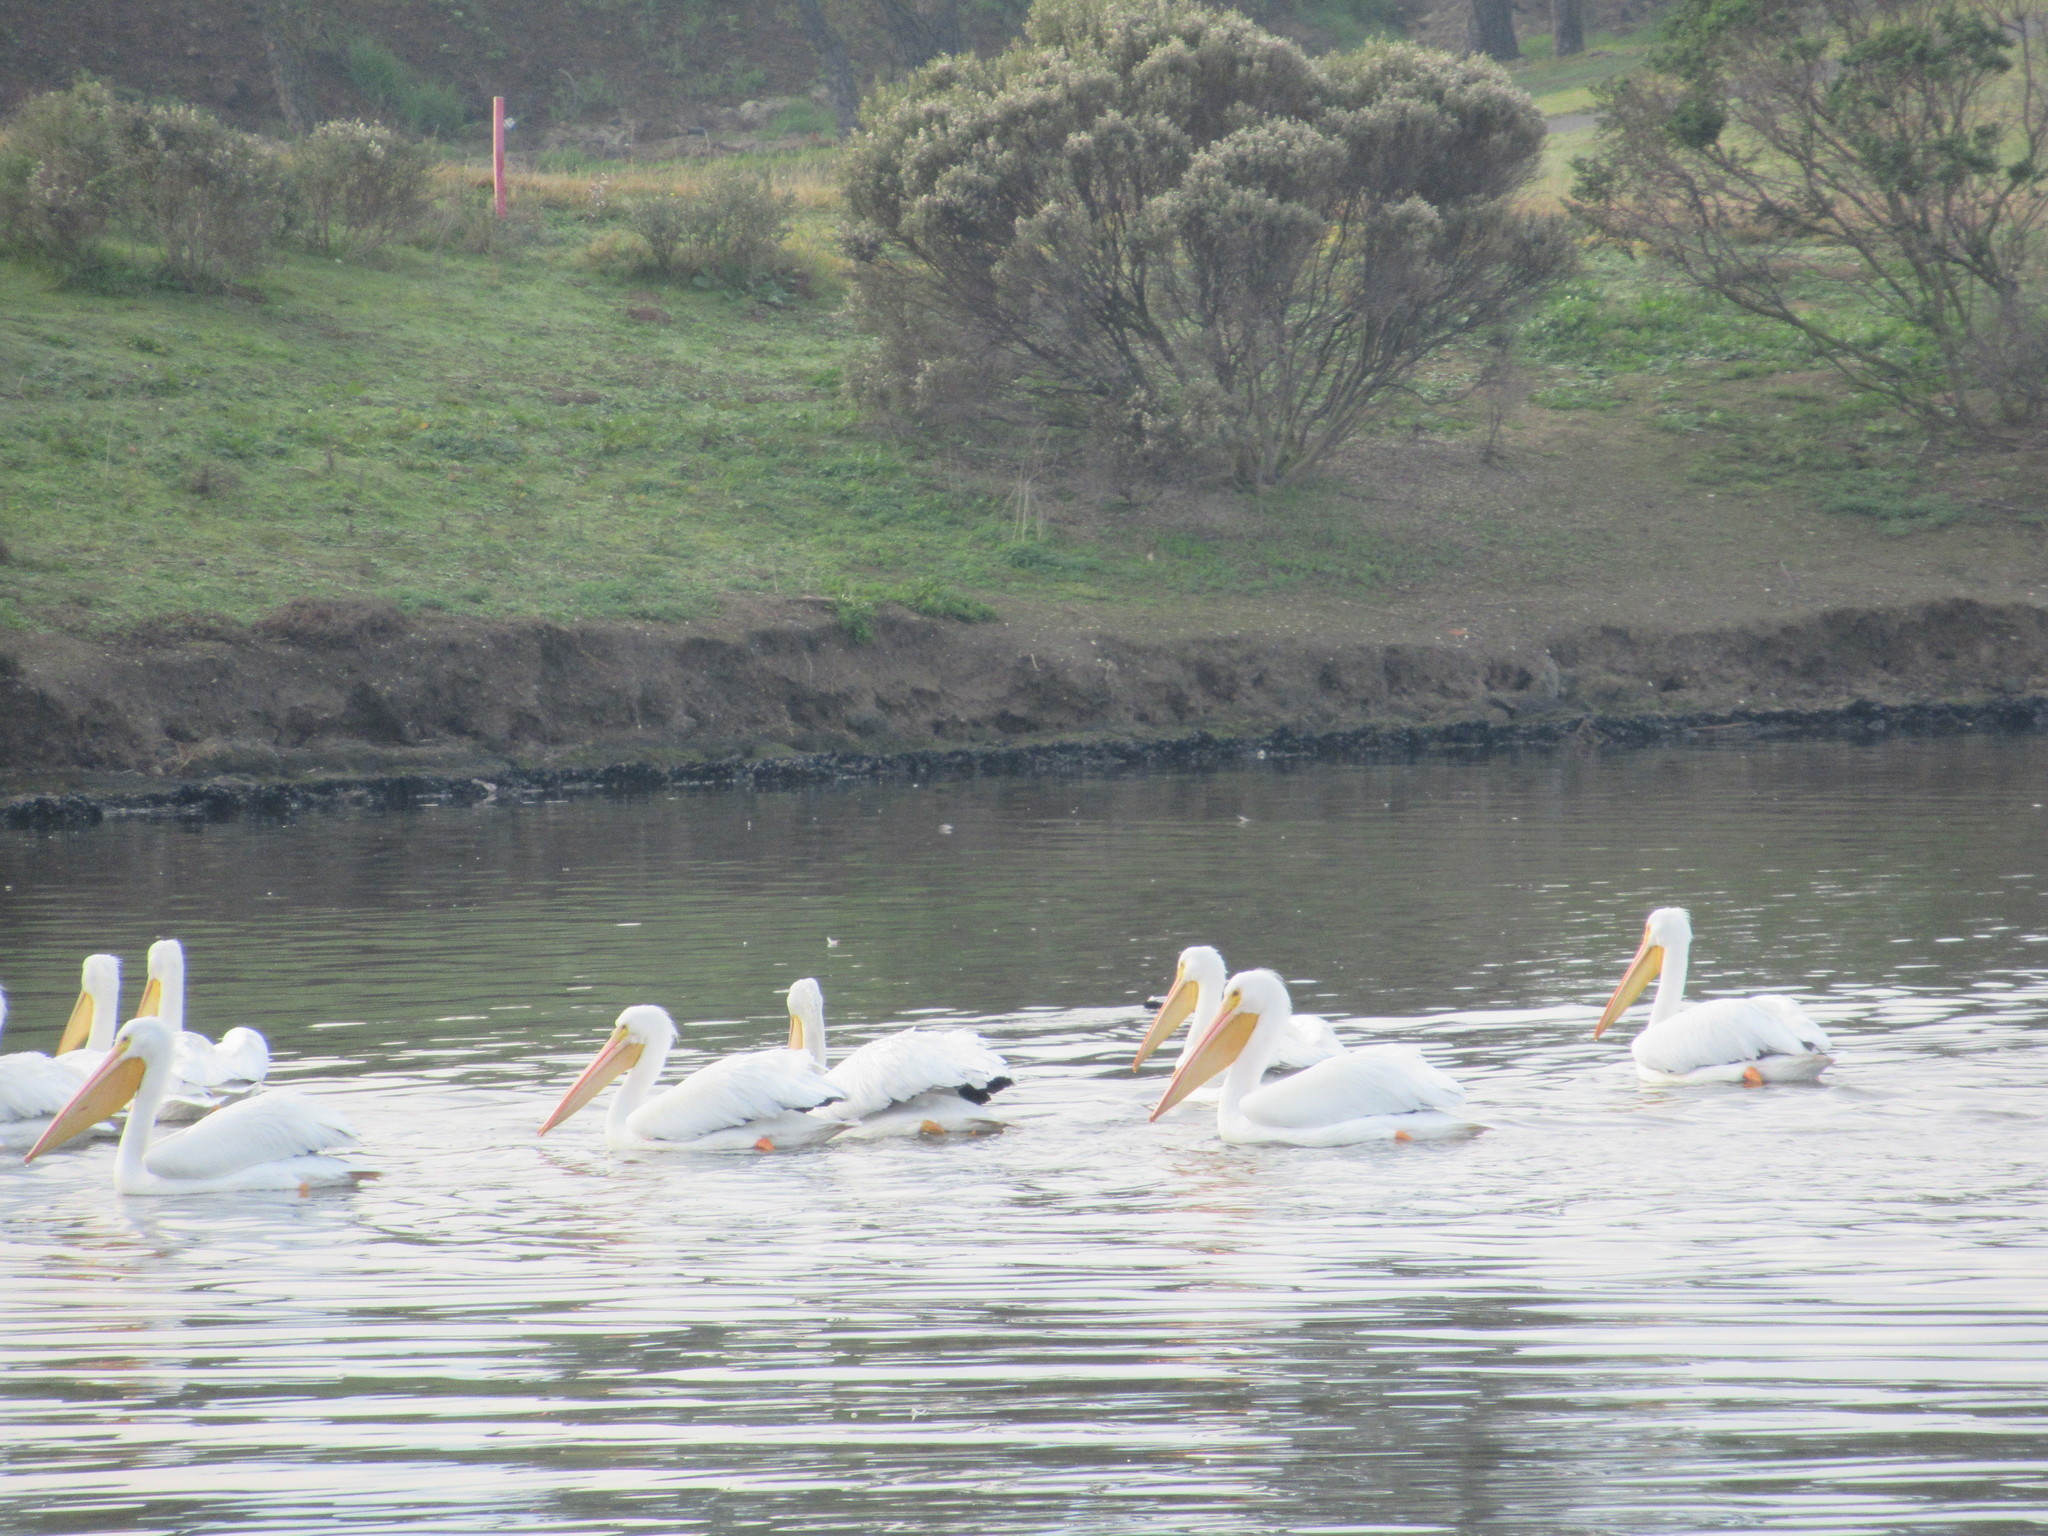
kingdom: Animalia
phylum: Chordata
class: Aves
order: Pelecaniformes
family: Pelecanidae
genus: Pelecanus
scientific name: Pelecanus erythrorhynchos
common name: American white pelican
